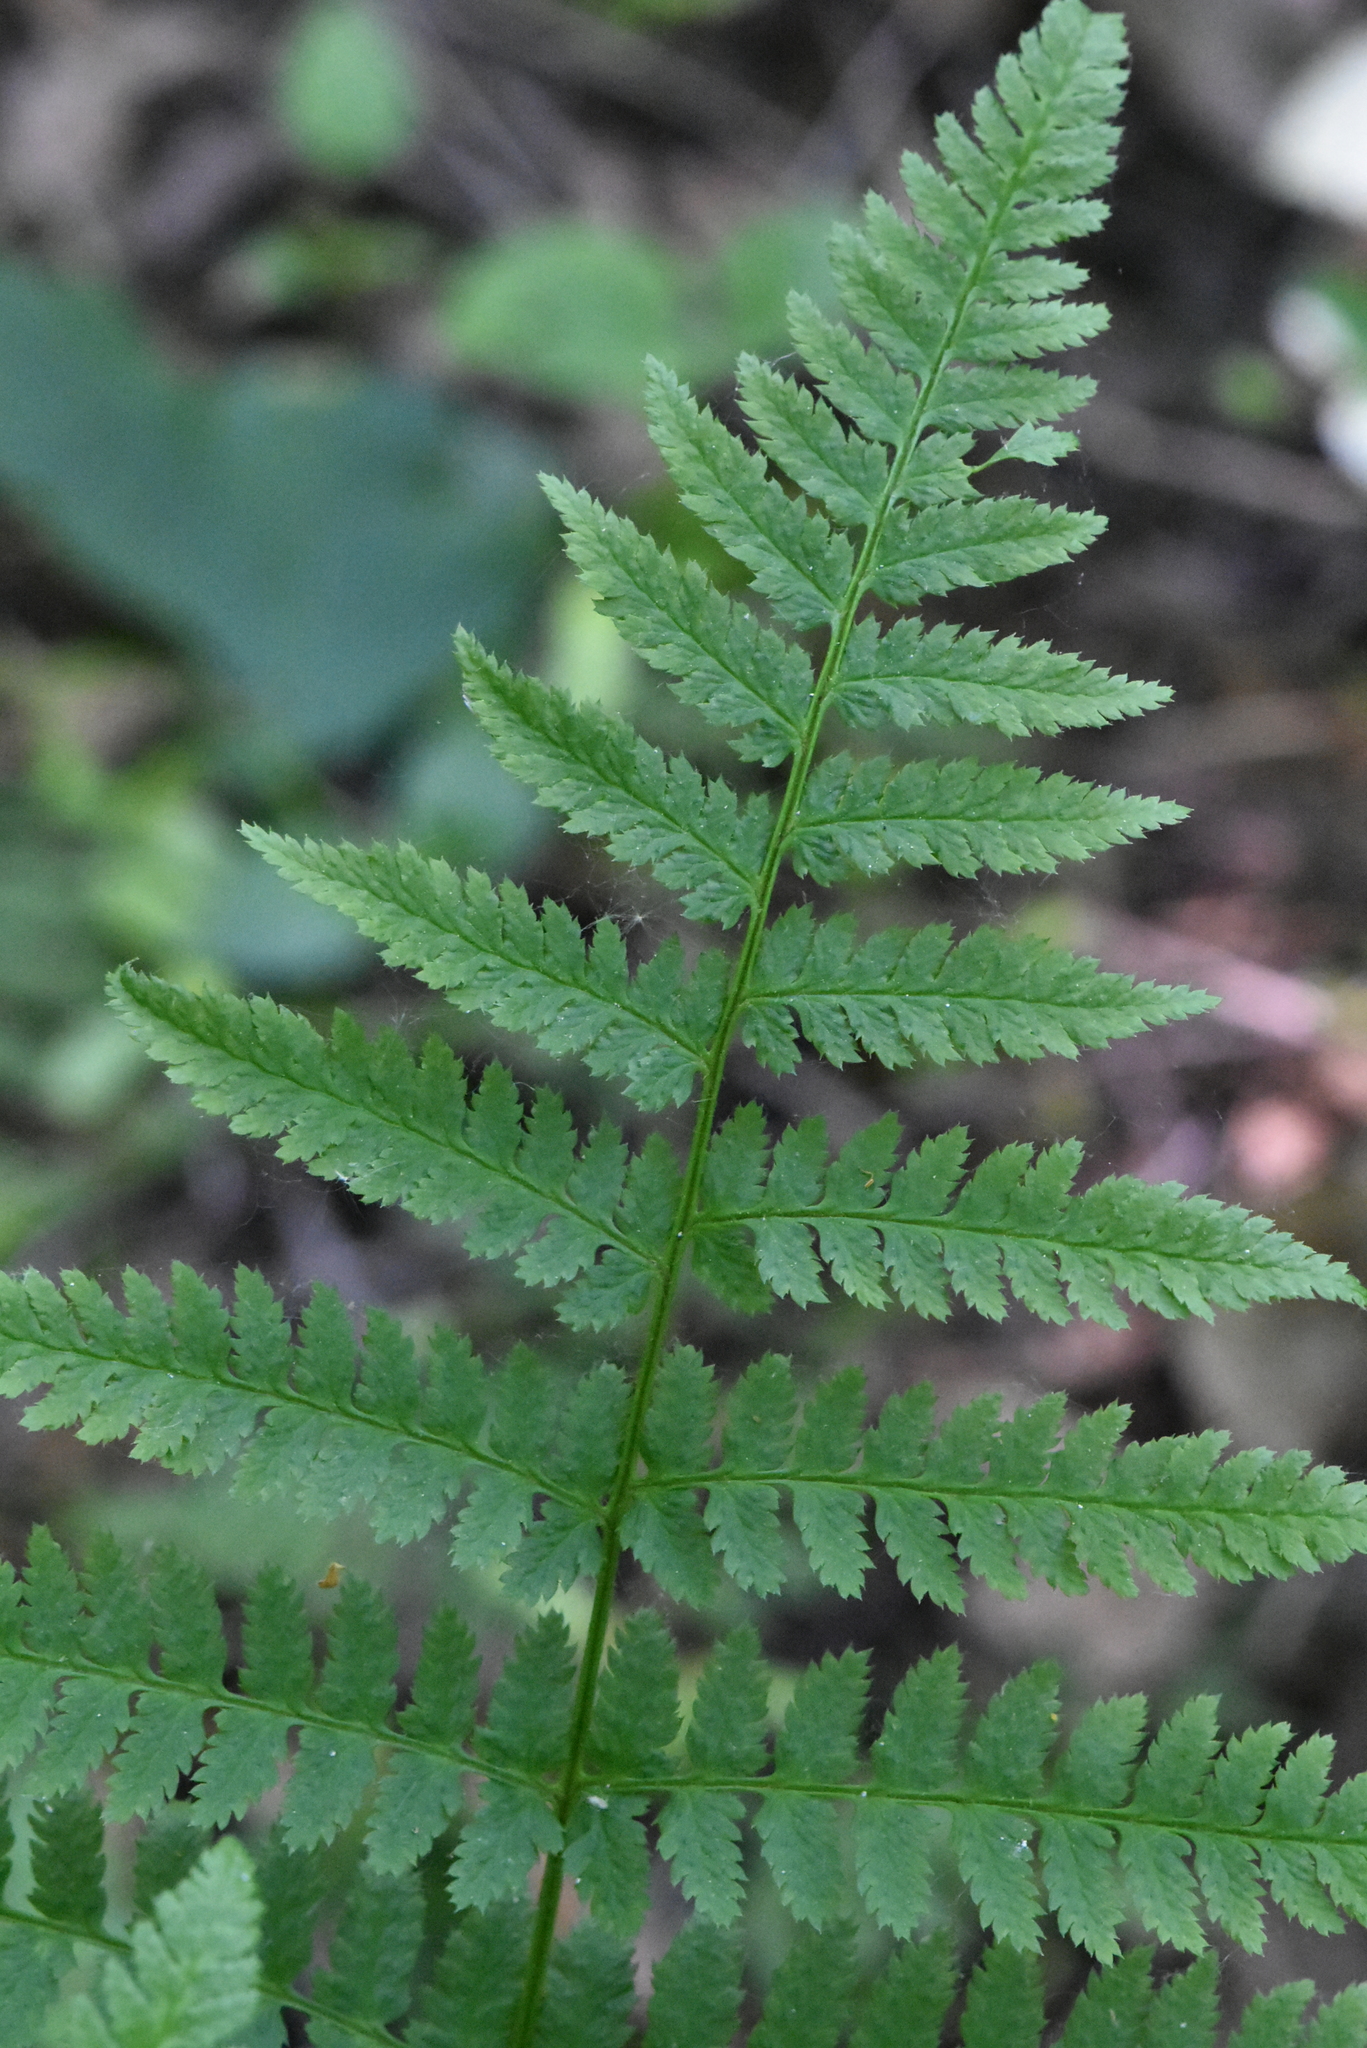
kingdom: Plantae
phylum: Tracheophyta
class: Polypodiopsida
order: Polypodiales
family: Dryopteridaceae
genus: Dryopteris
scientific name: Dryopteris carthusiana
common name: Narrow buckler-fern
